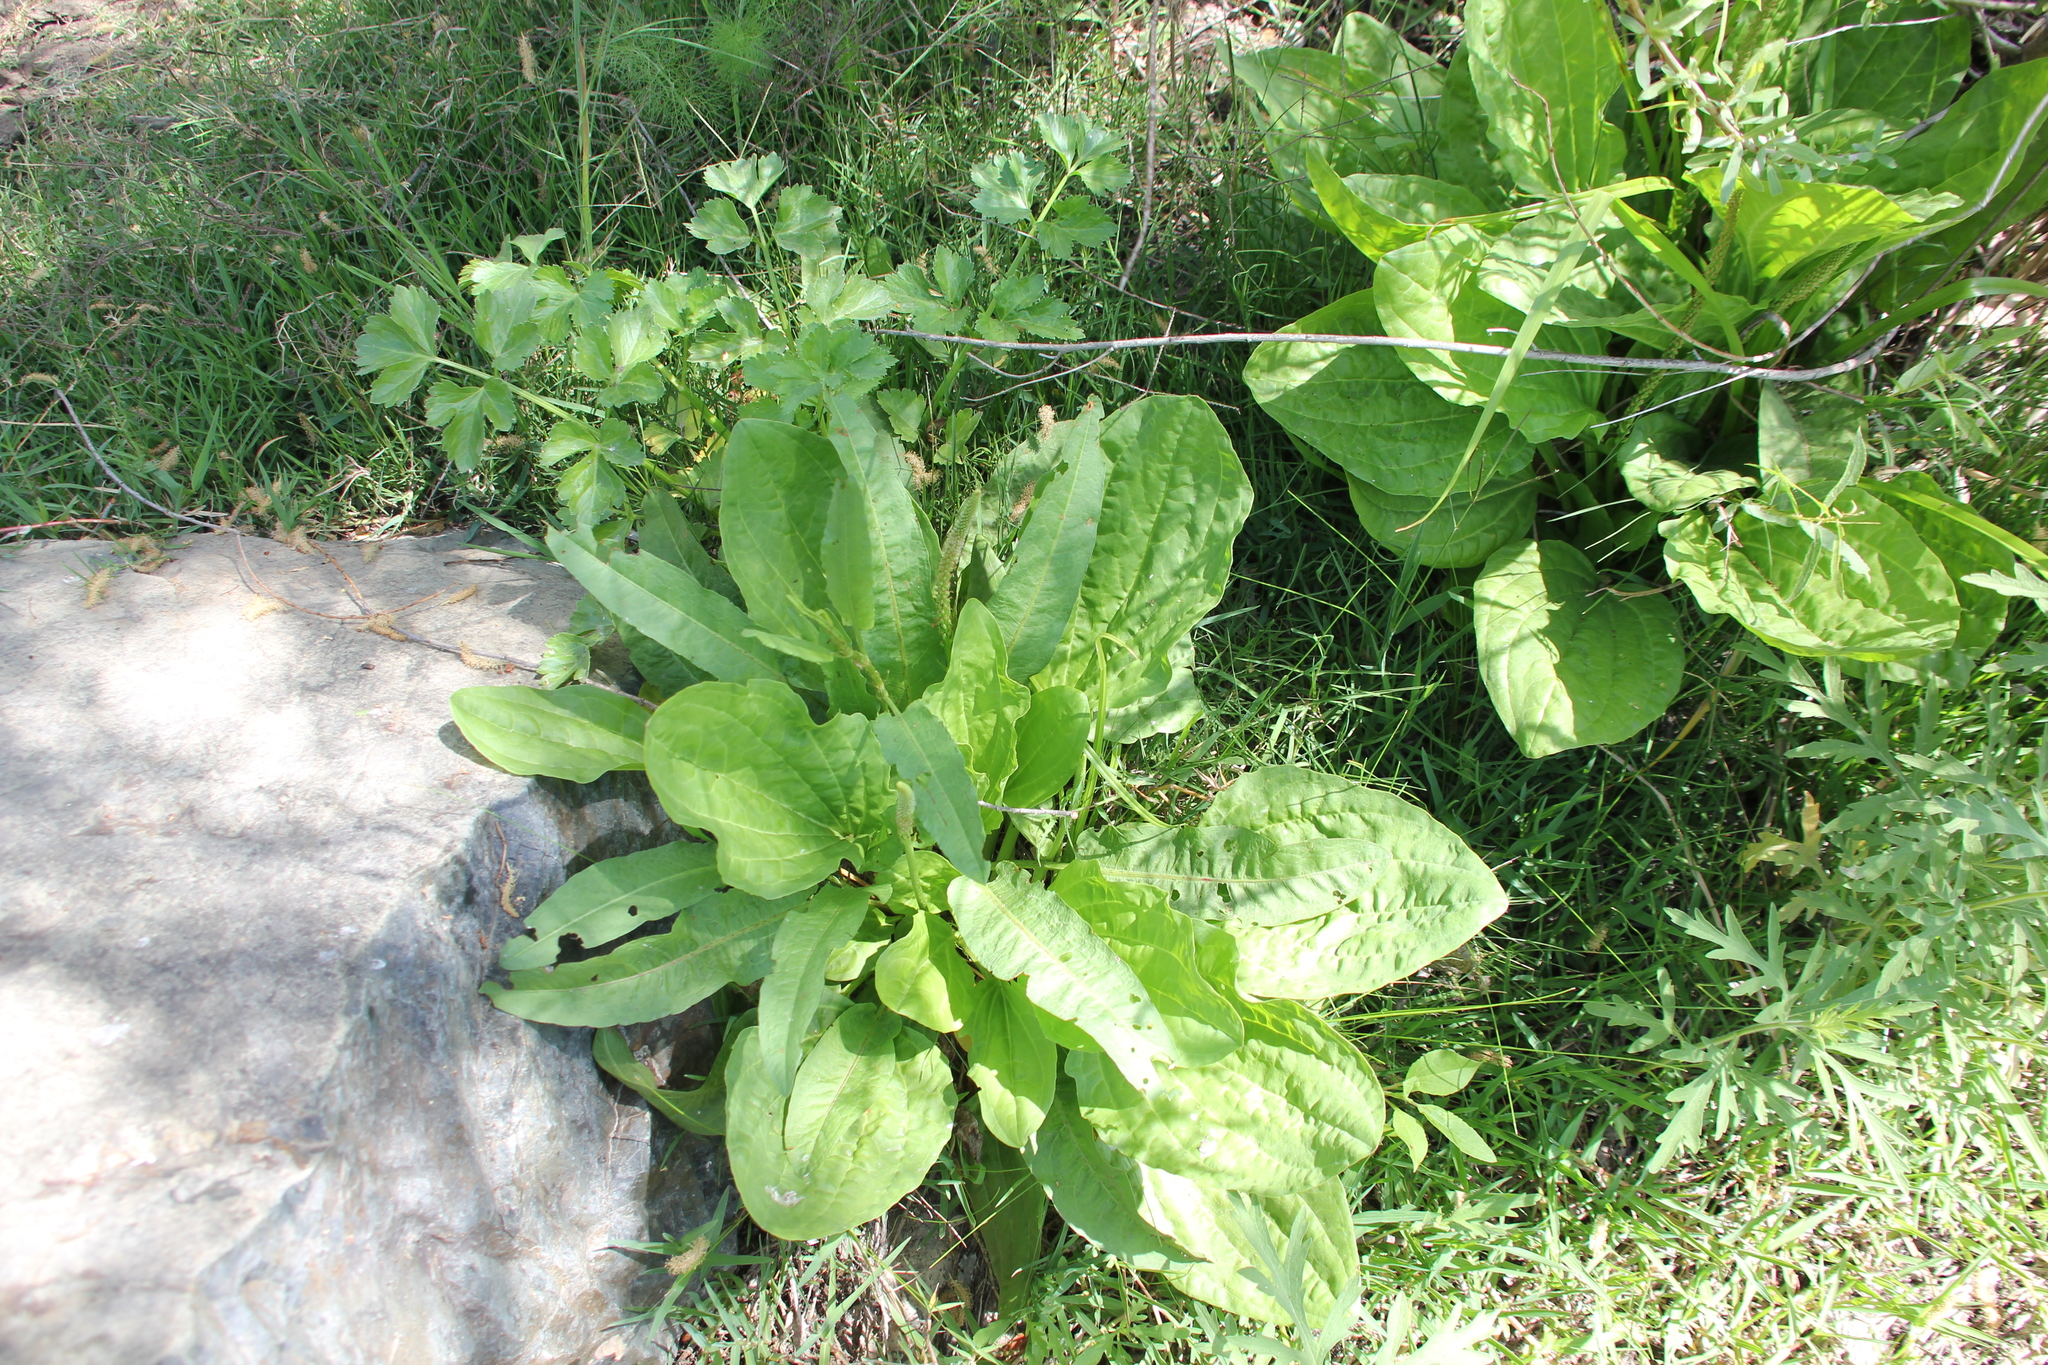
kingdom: Plantae
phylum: Tracheophyta
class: Magnoliopsida
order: Lamiales
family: Plantaginaceae
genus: Plantago
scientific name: Plantago major
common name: Common plantain
